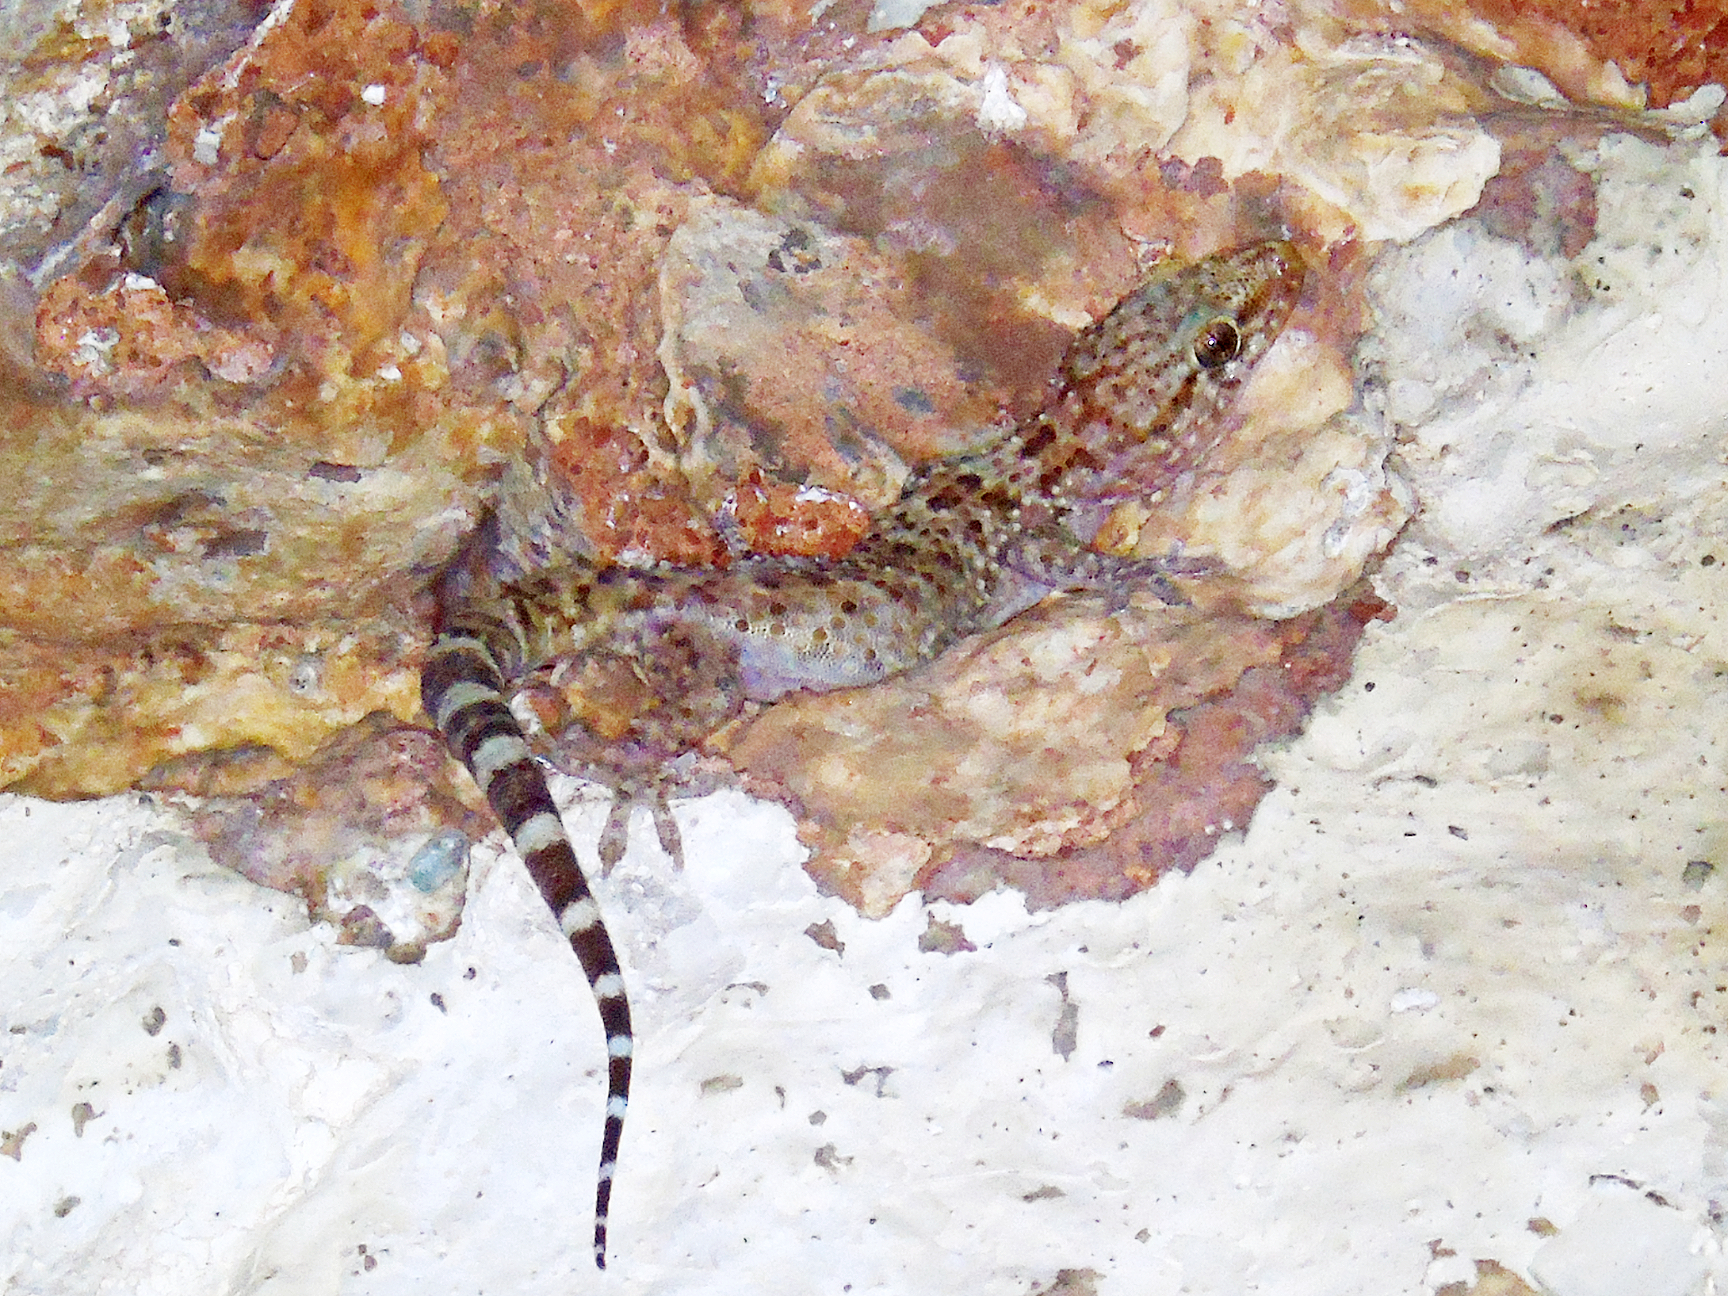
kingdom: Animalia
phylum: Chordata
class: Squamata
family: Gekkonidae
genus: Hemidactylus
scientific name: Hemidactylus turcicus
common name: Turkish gecko
